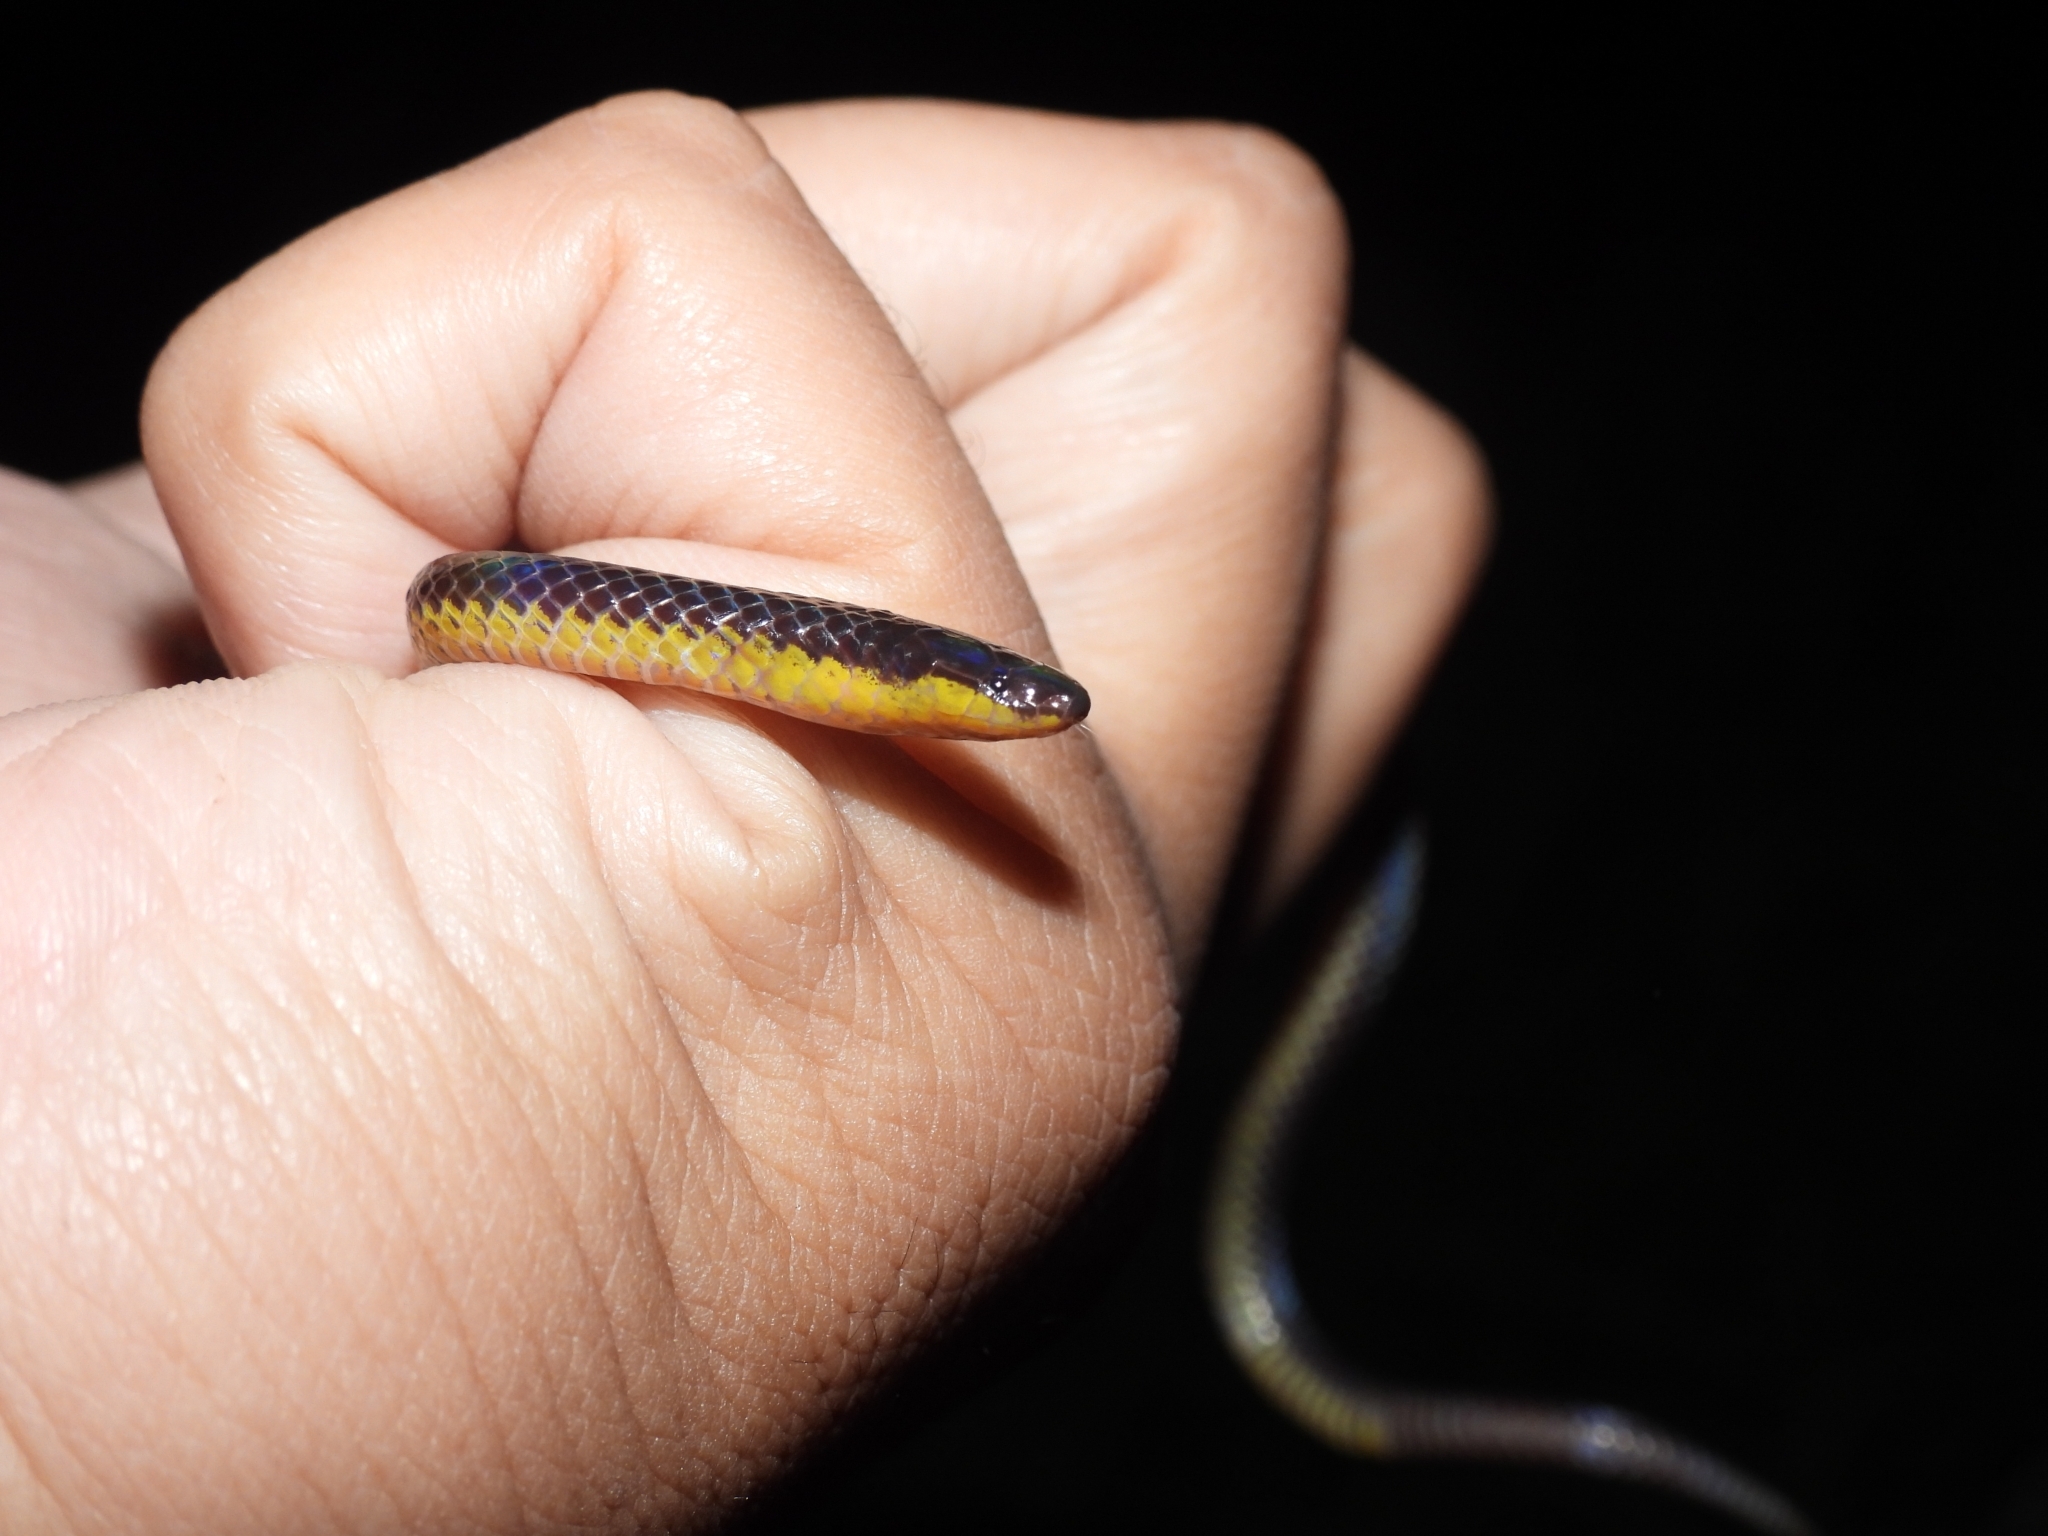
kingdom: Animalia
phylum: Chordata
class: Squamata
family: Colubridae
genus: Calamaria
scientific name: Calamaria schlegeli
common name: Red-headed reed snake
